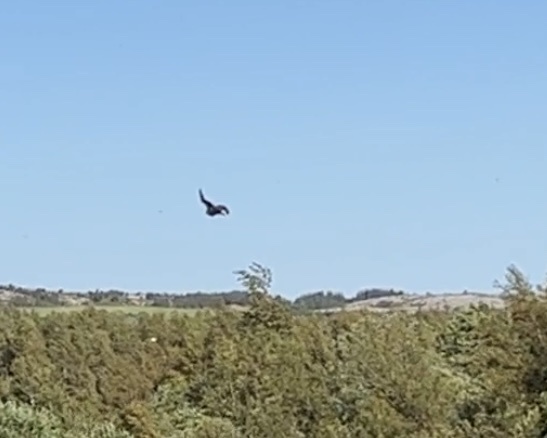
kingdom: Animalia
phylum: Chordata
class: Aves
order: Falconiformes
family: Falconidae
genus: Falco
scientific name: Falco peregrinus
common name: Peregrine falcon
